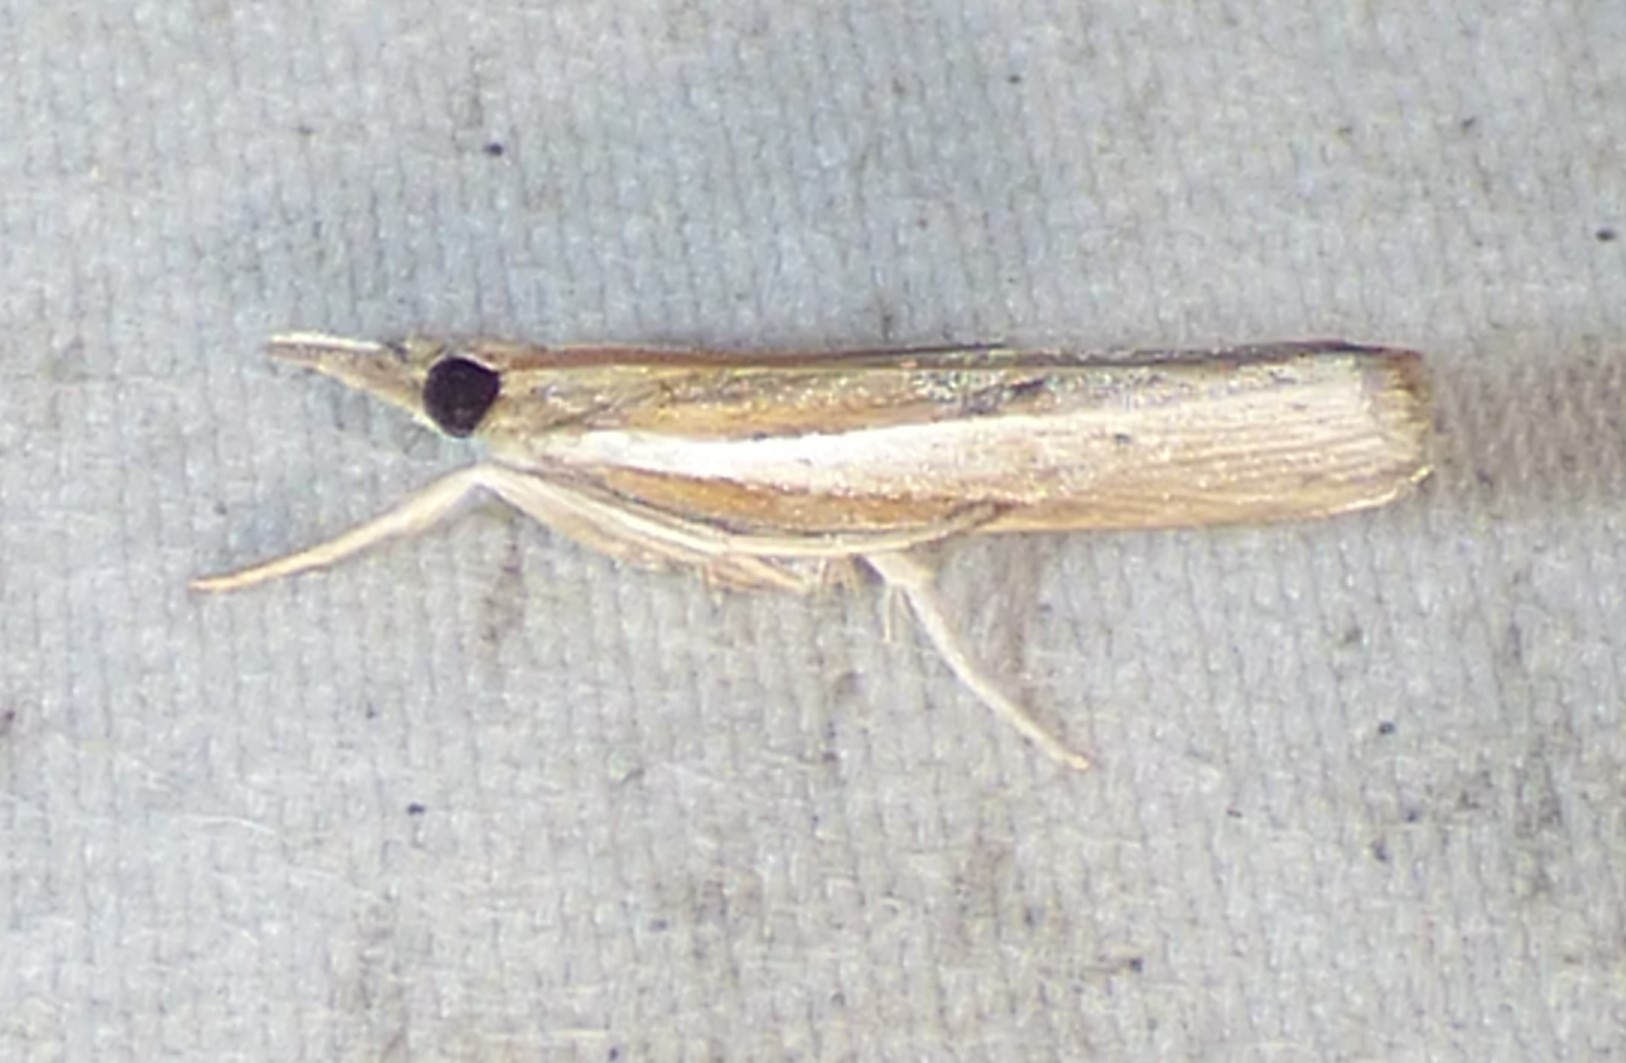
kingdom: Animalia
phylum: Arthropoda
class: Insecta
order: Lepidoptera
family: Crambidae
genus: Fissicrambus
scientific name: Fissicrambus fissiradiellus
